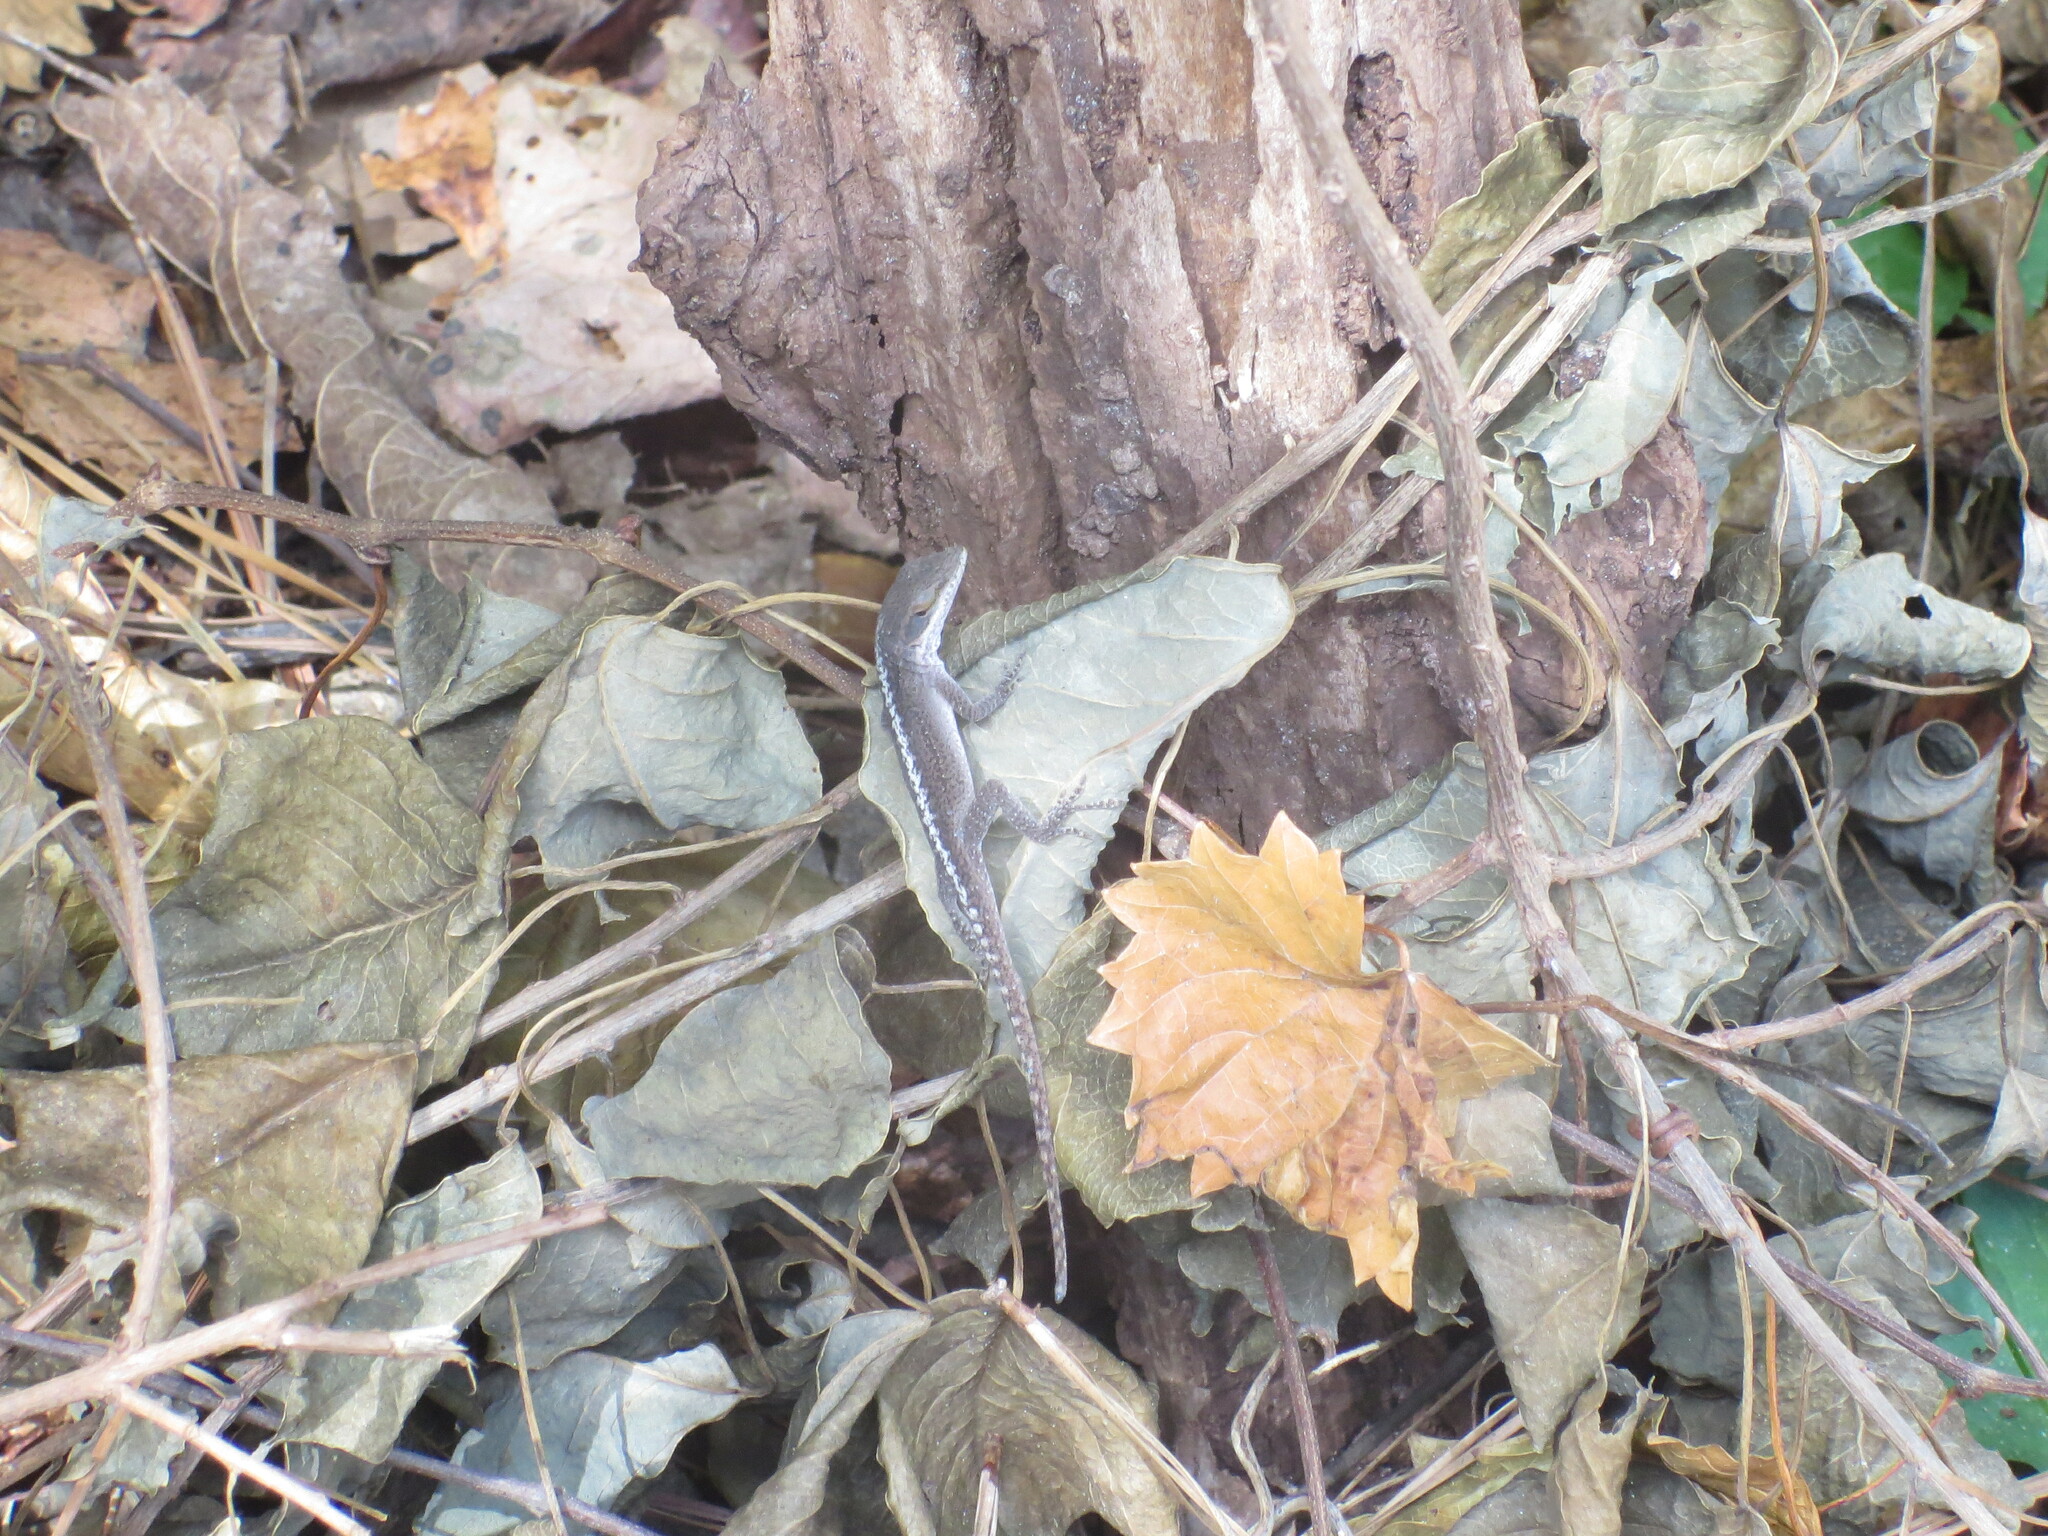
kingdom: Animalia
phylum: Chordata
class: Squamata
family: Dactyloidae
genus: Anolis
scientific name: Anolis carolinensis
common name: Green anole
